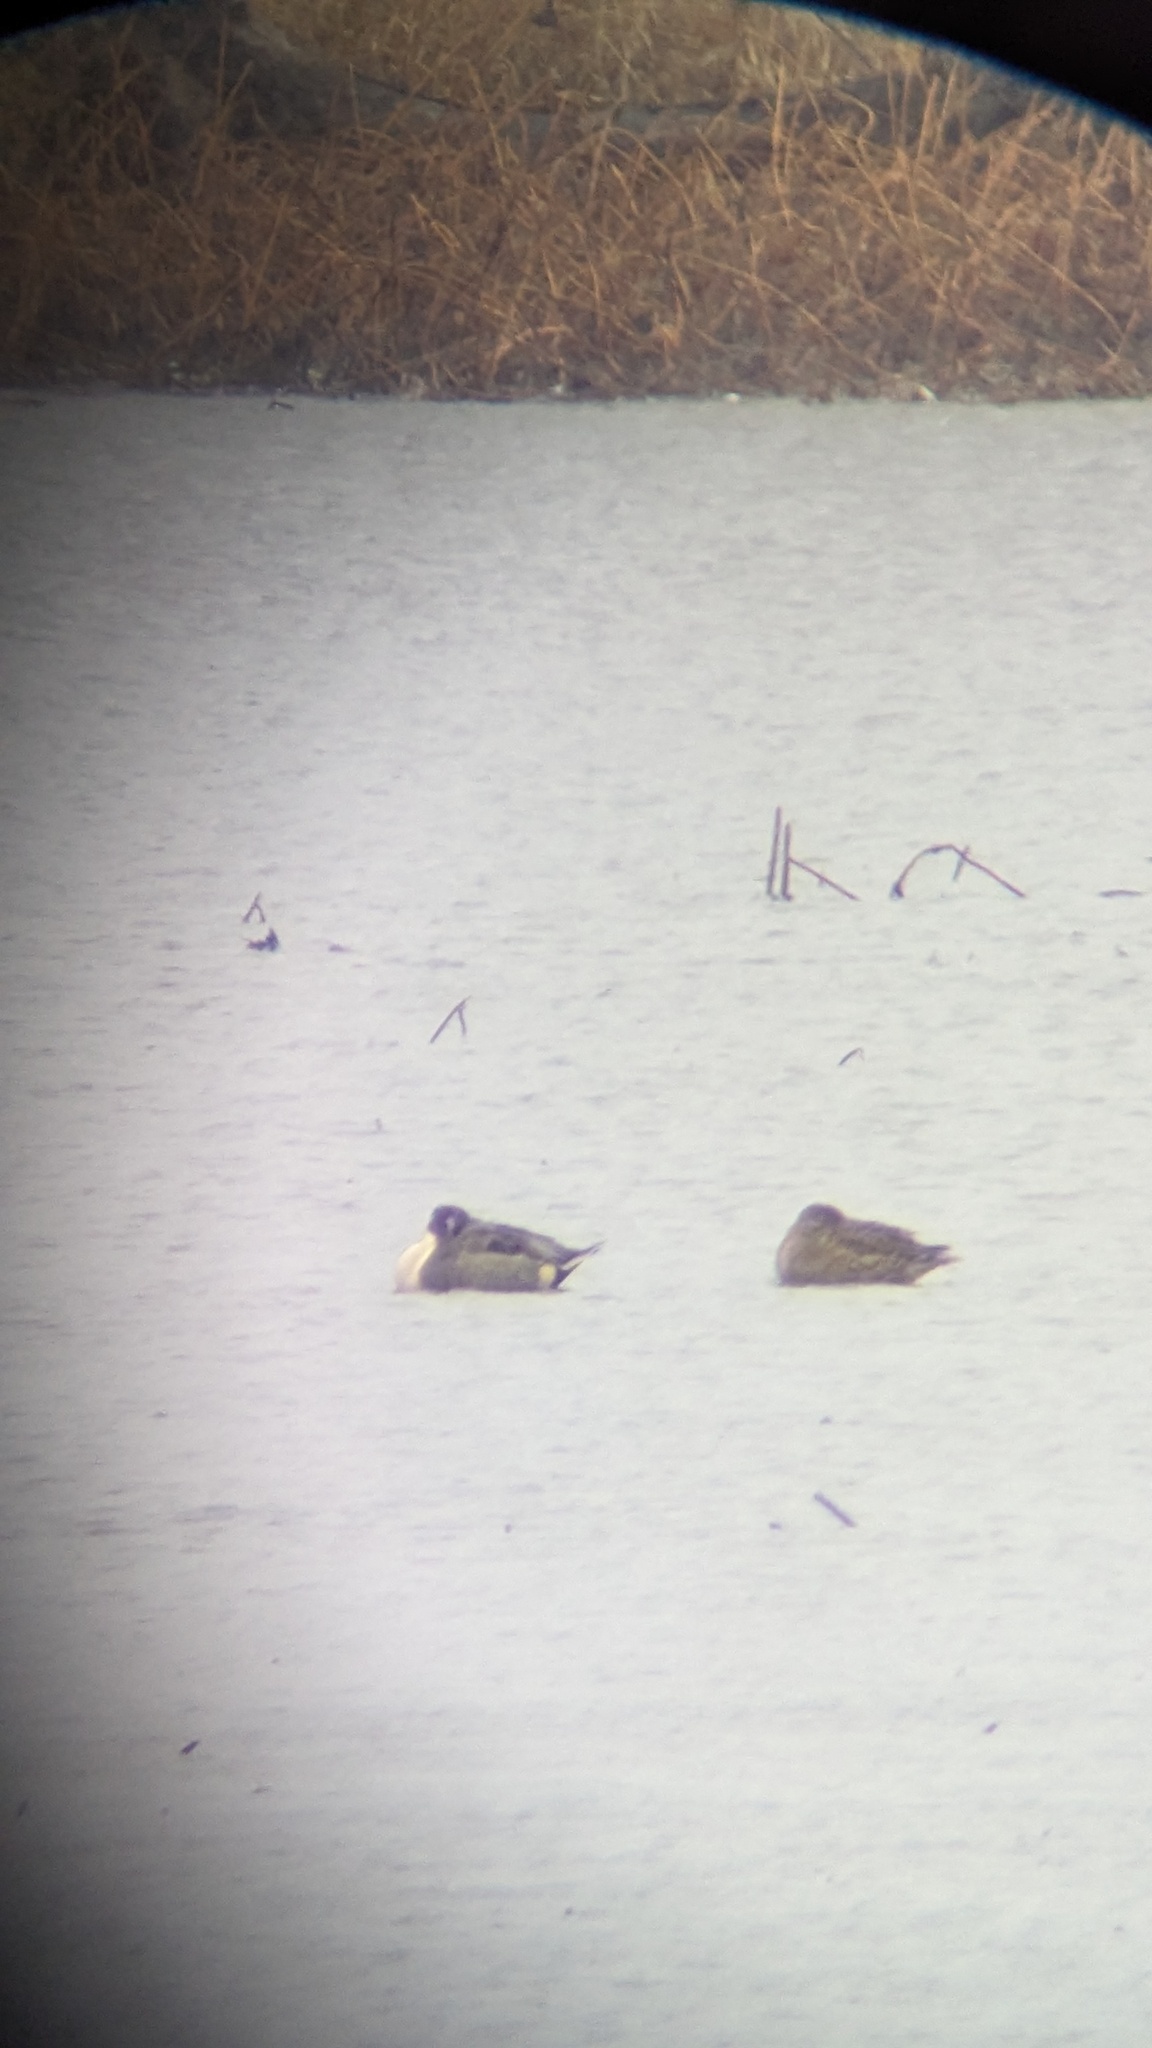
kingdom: Animalia
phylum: Chordata
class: Aves
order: Anseriformes
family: Anatidae
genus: Anas
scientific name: Anas acuta
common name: Northern pintail
